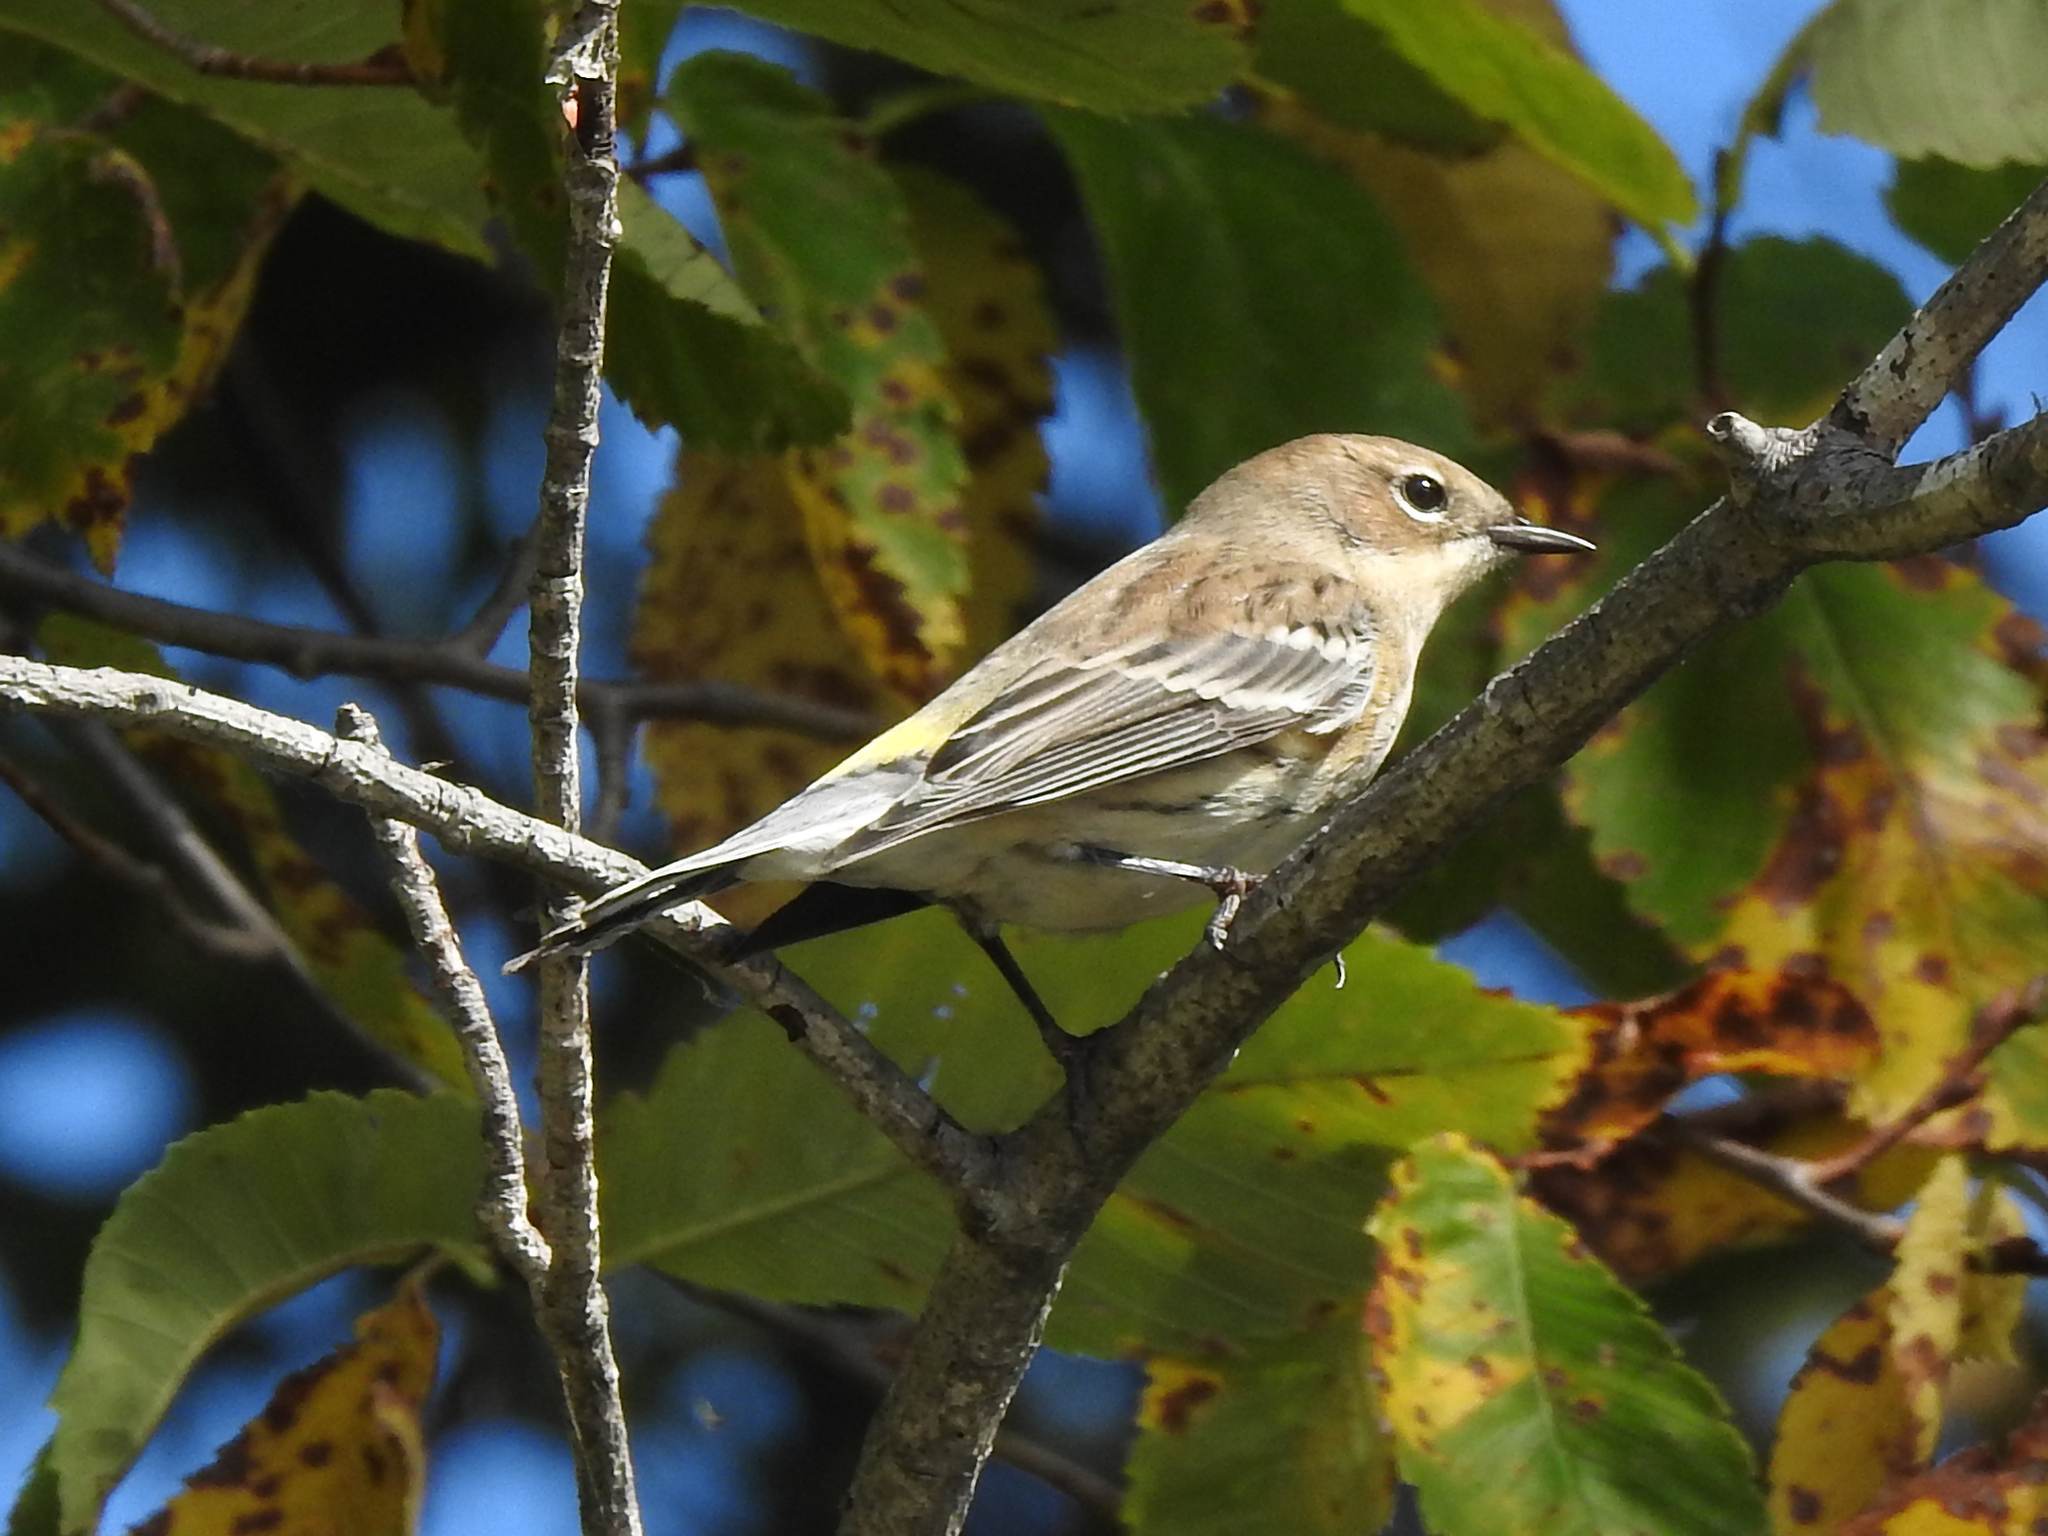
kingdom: Animalia
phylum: Chordata
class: Aves
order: Passeriformes
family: Parulidae
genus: Setophaga
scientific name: Setophaga coronata
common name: Myrtle warbler
